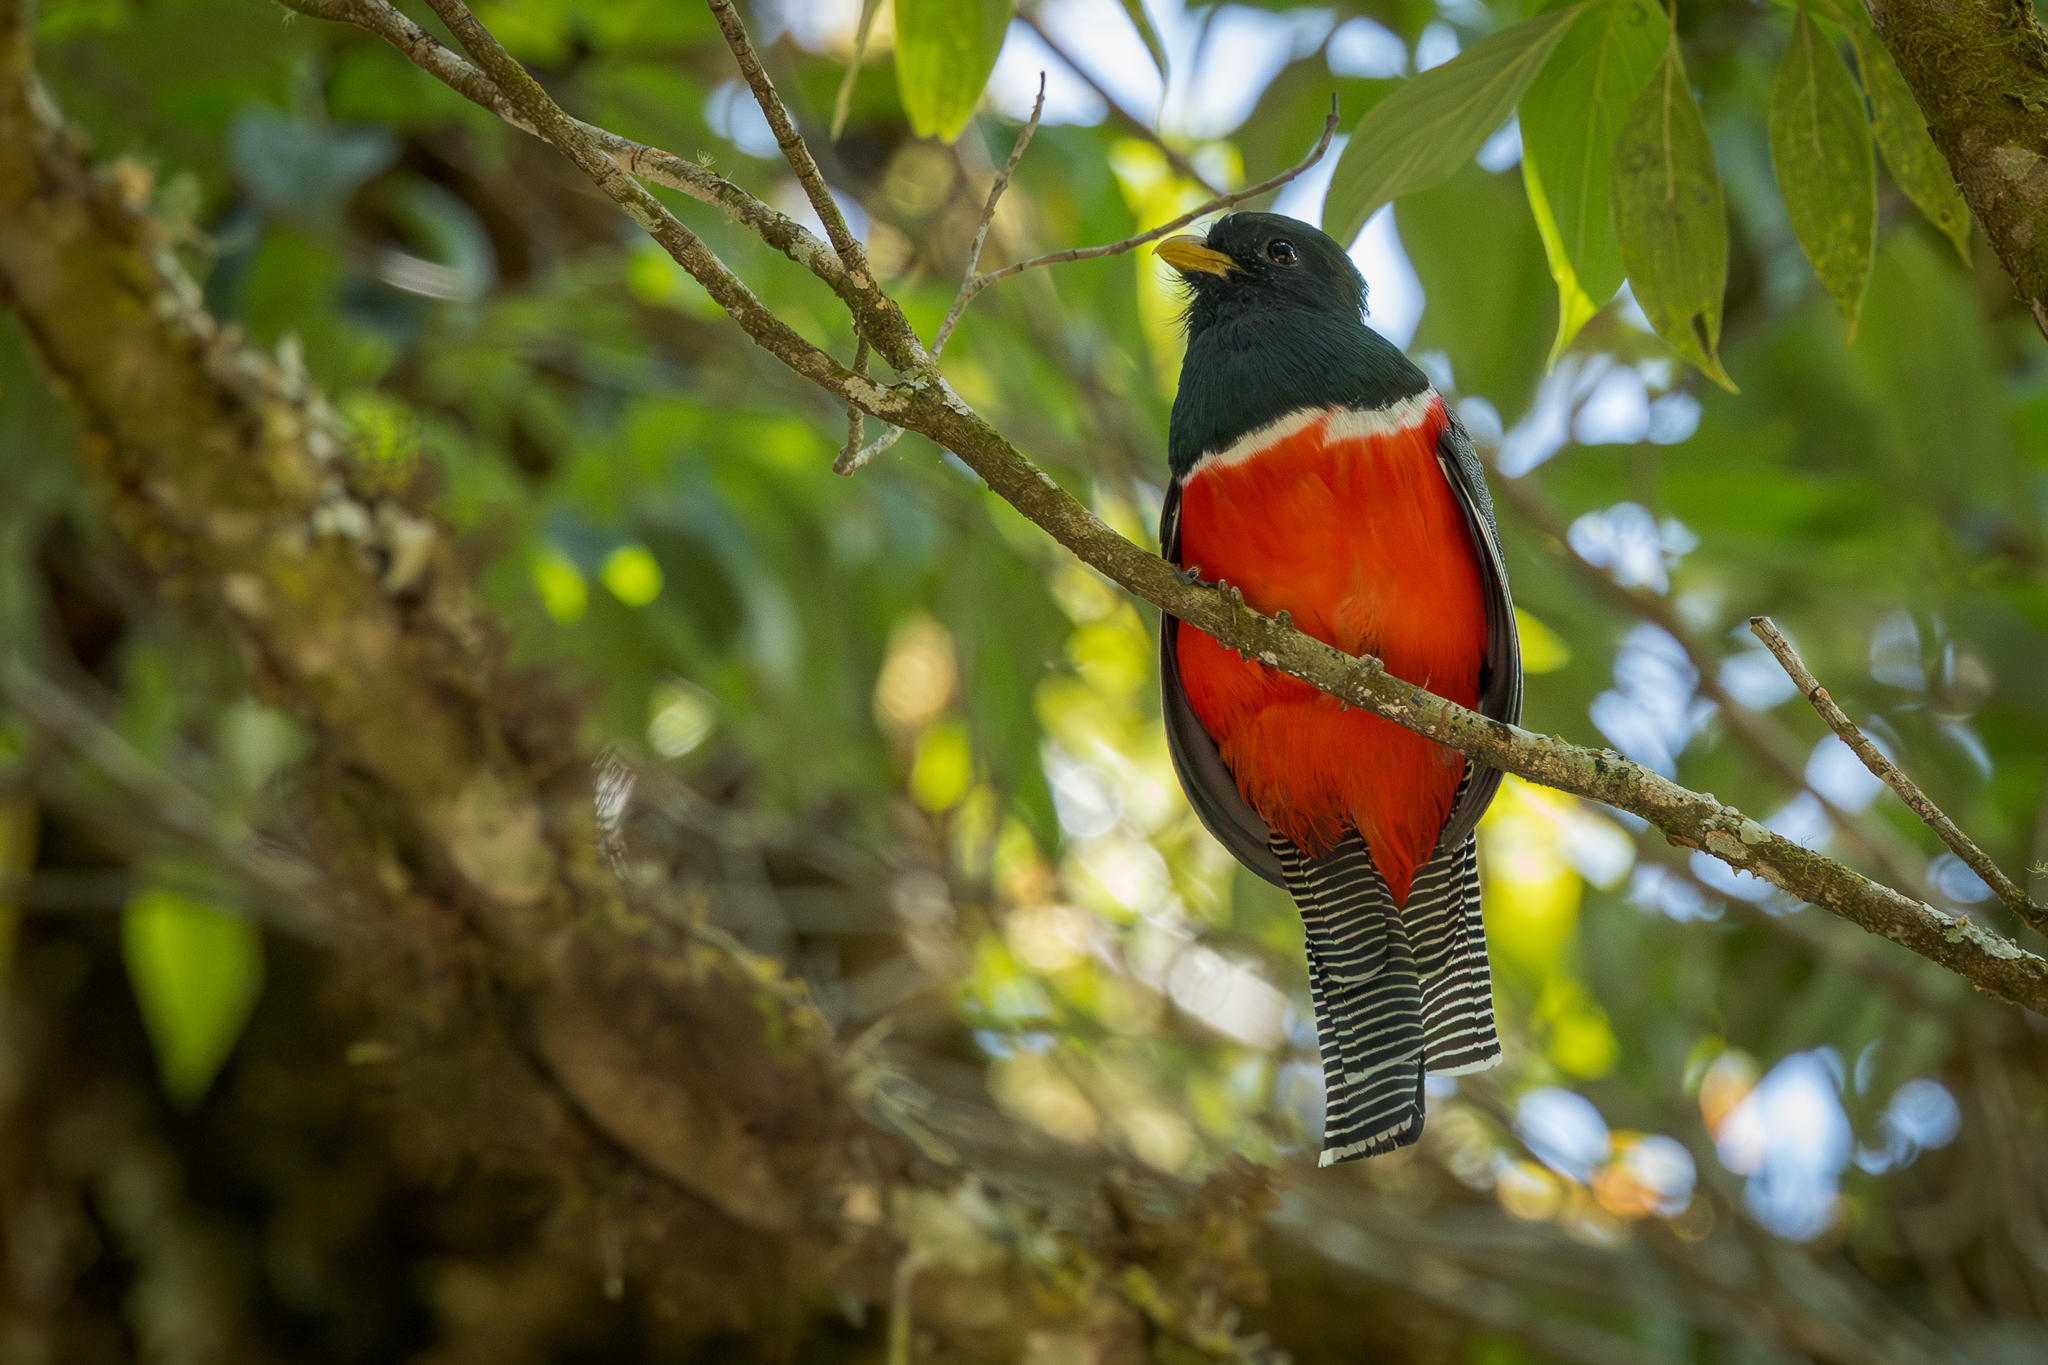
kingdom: Animalia
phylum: Chordata
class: Aves
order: Trogoniformes
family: Trogonidae
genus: Trogon
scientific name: Trogon collaris
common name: Collared trogon
